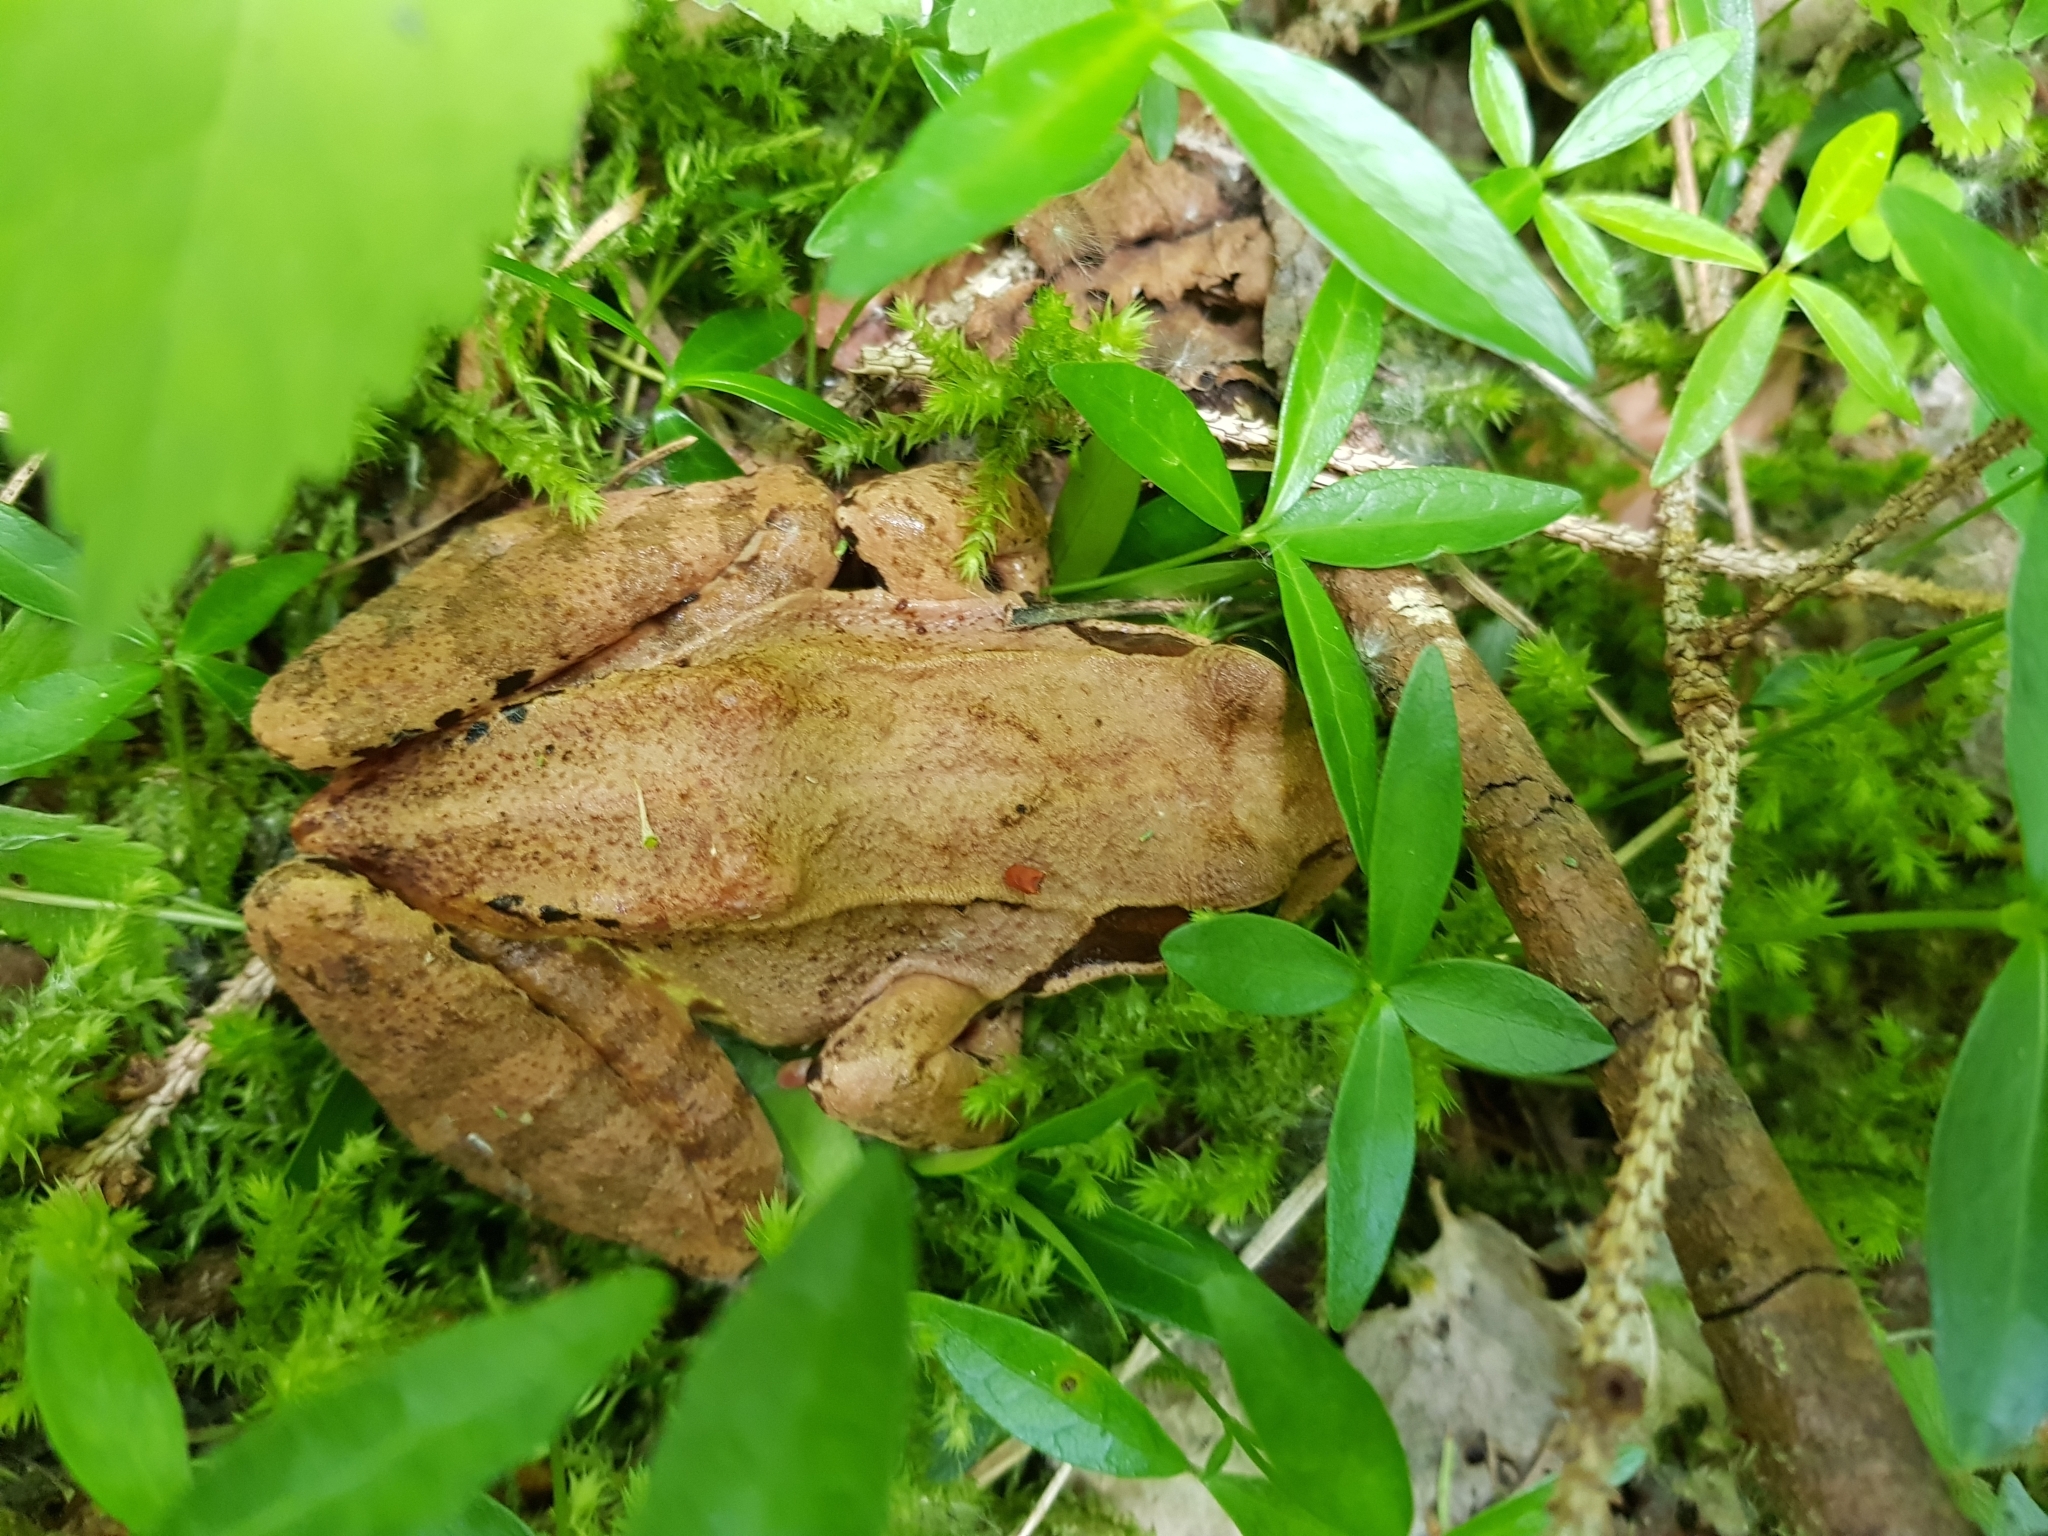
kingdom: Animalia
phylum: Chordata
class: Amphibia
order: Anura
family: Ranidae
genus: Rana
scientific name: Rana temporaria
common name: Common frog
